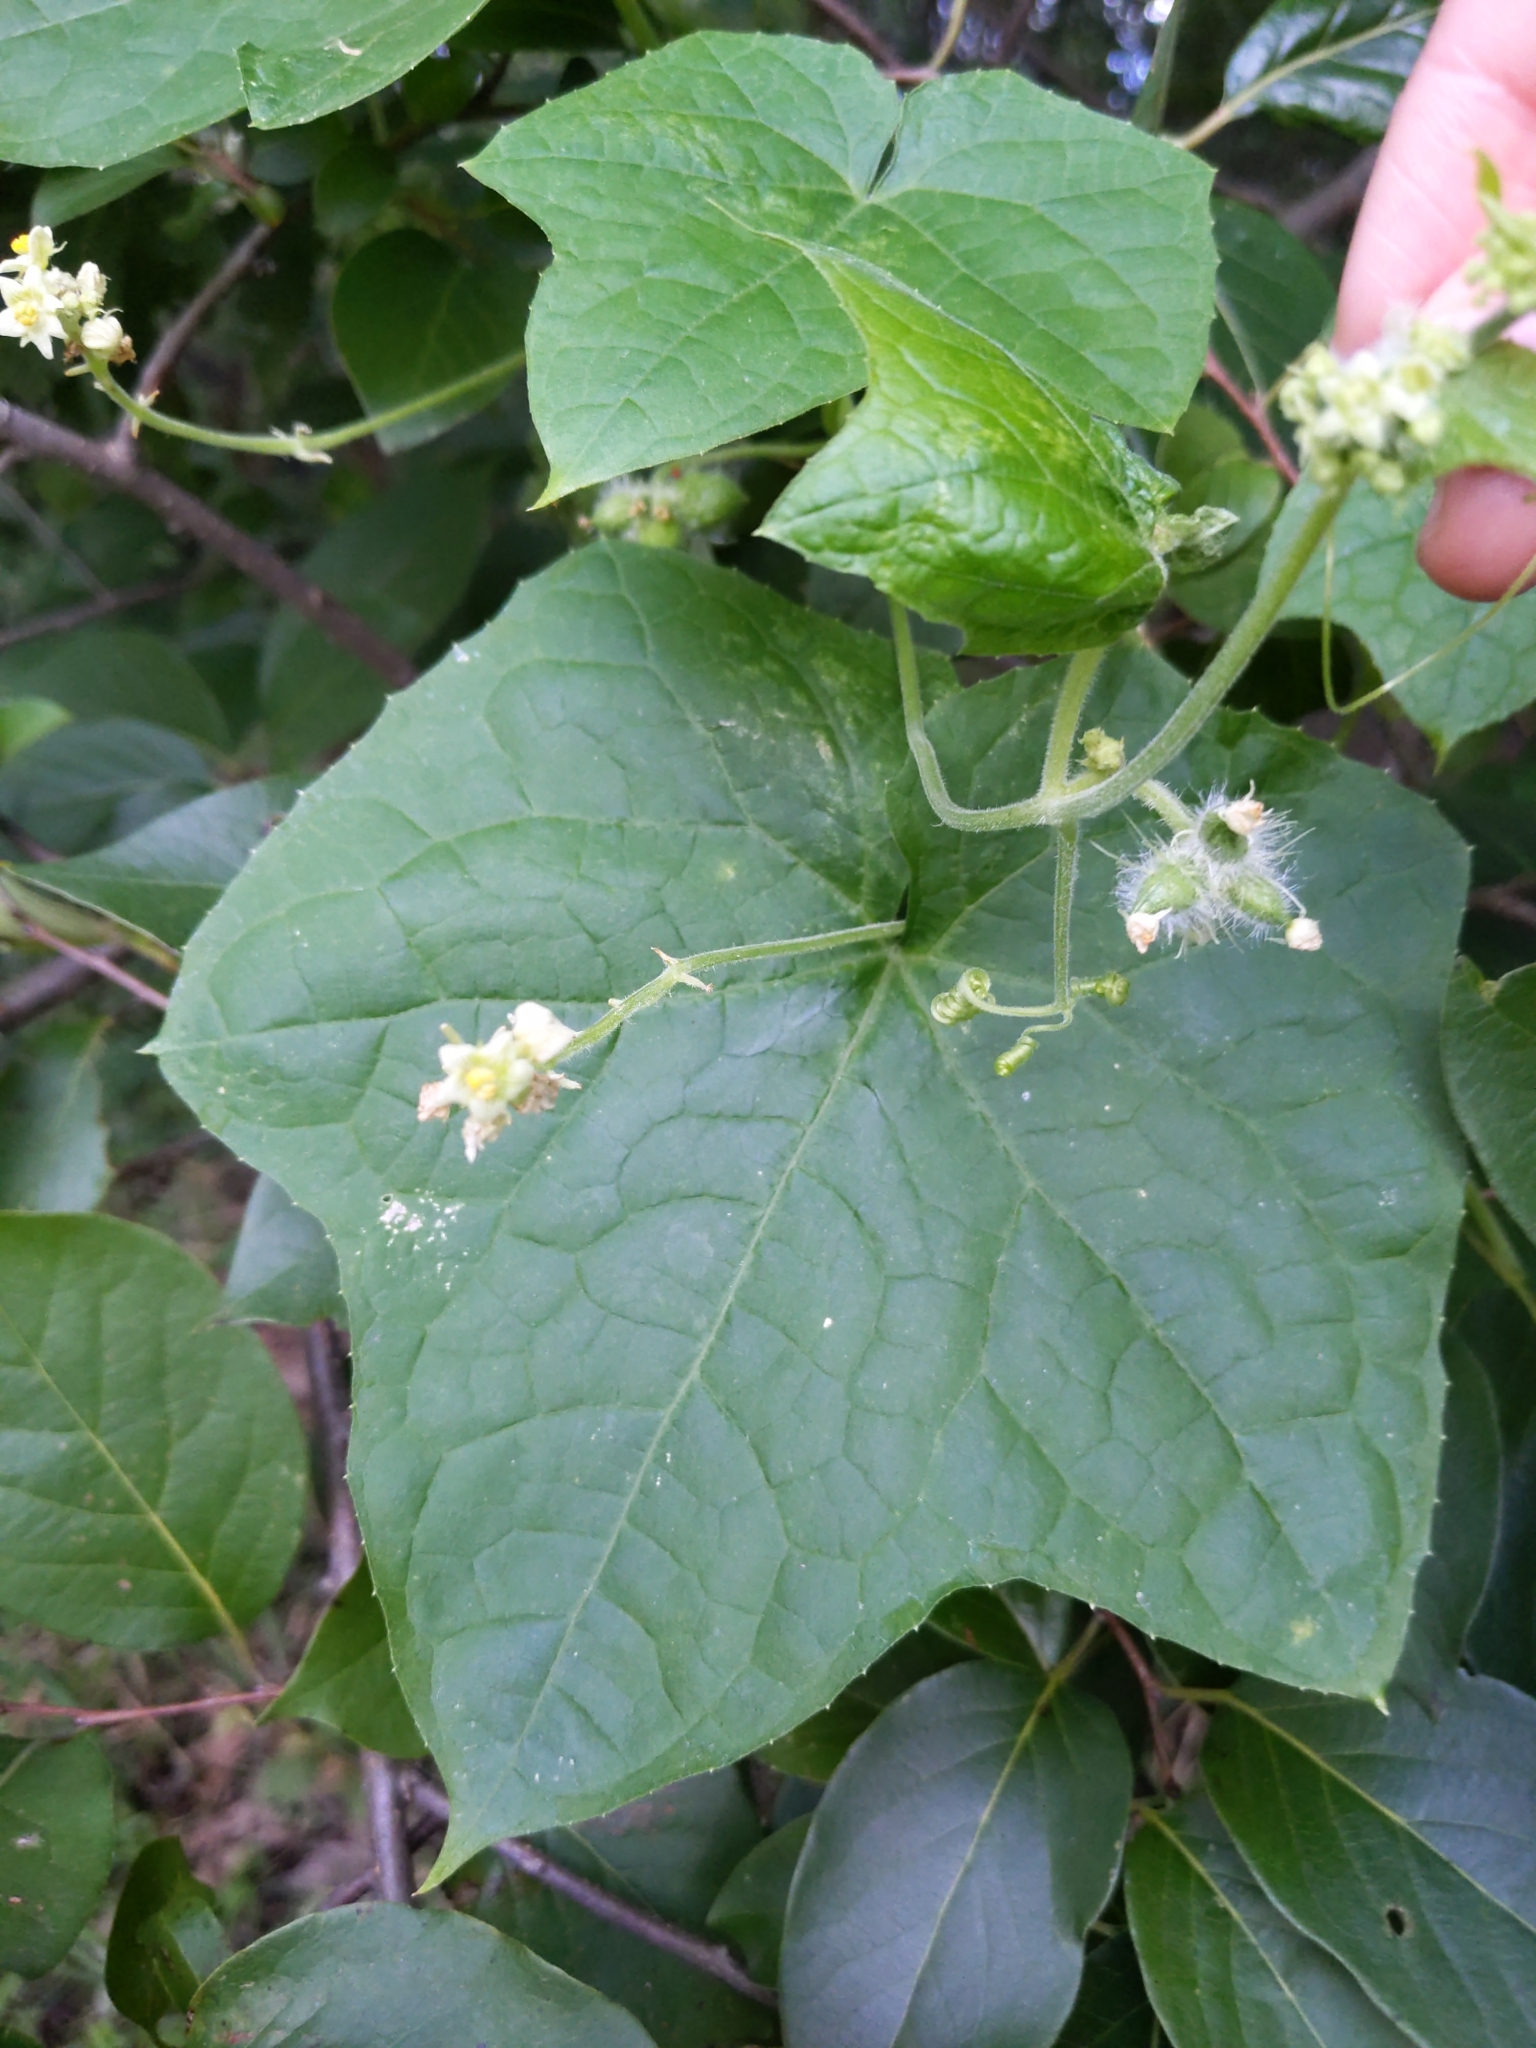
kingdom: Plantae
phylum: Tracheophyta
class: Magnoliopsida
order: Cucurbitales
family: Cucurbitaceae
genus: Sicyos
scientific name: Sicyos angulatus
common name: Angled burr cucumber
